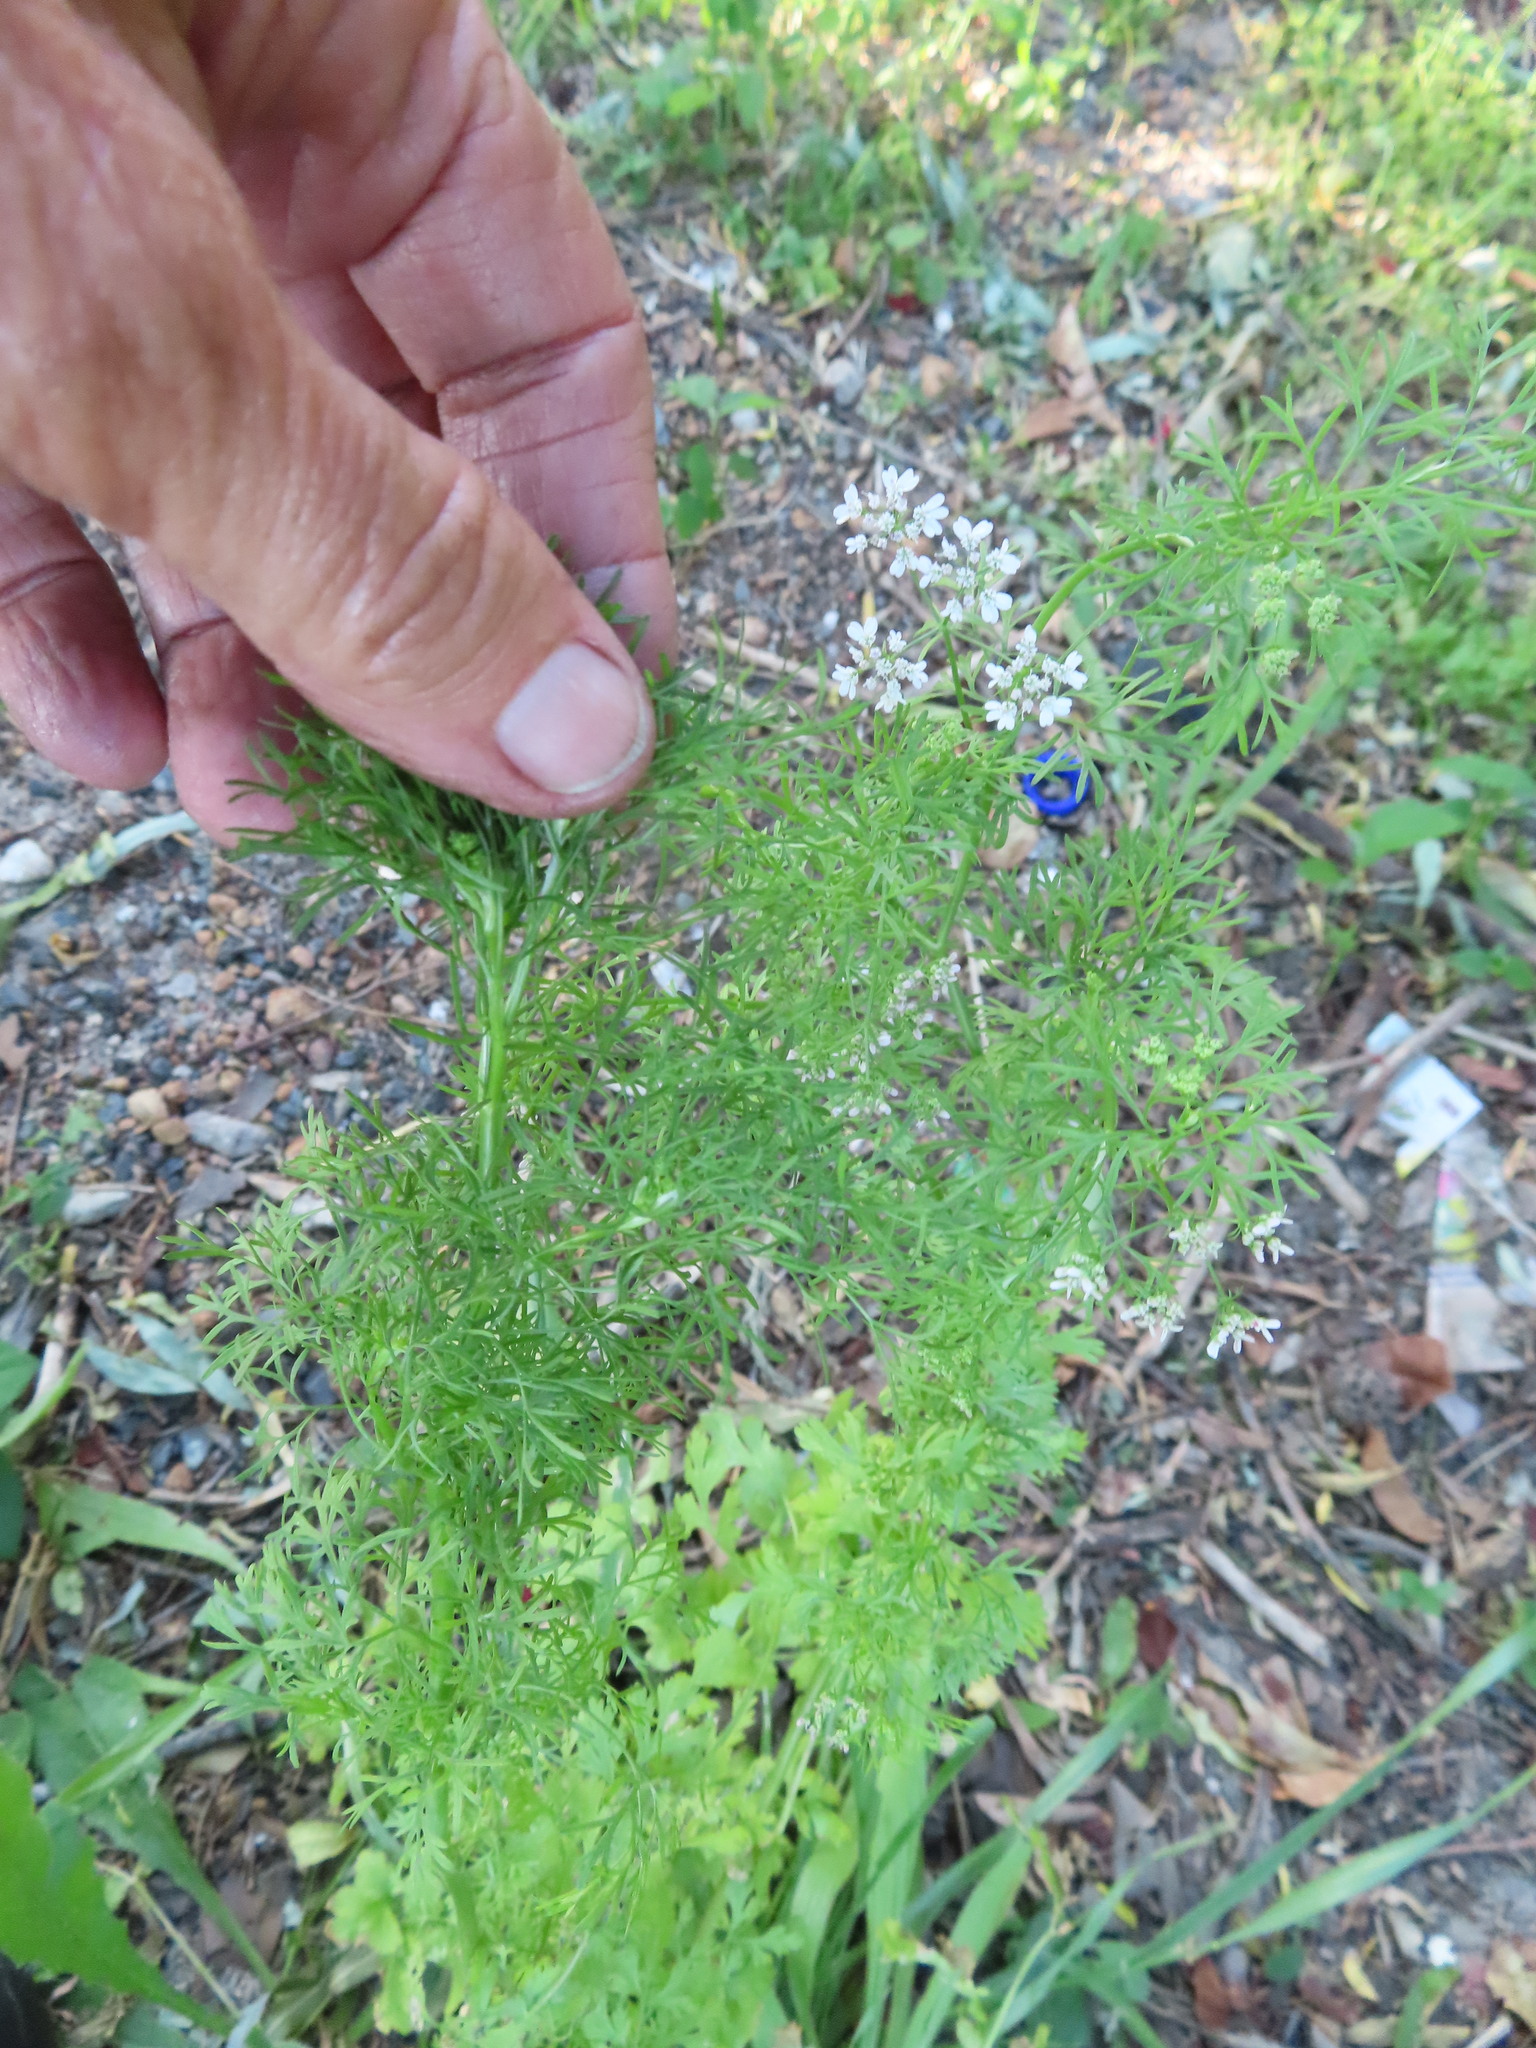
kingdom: Plantae
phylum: Tracheophyta
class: Magnoliopsida
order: Apiales
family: Apiaceae
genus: Coriandrum
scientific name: Coriandrum sativum
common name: Coriander
